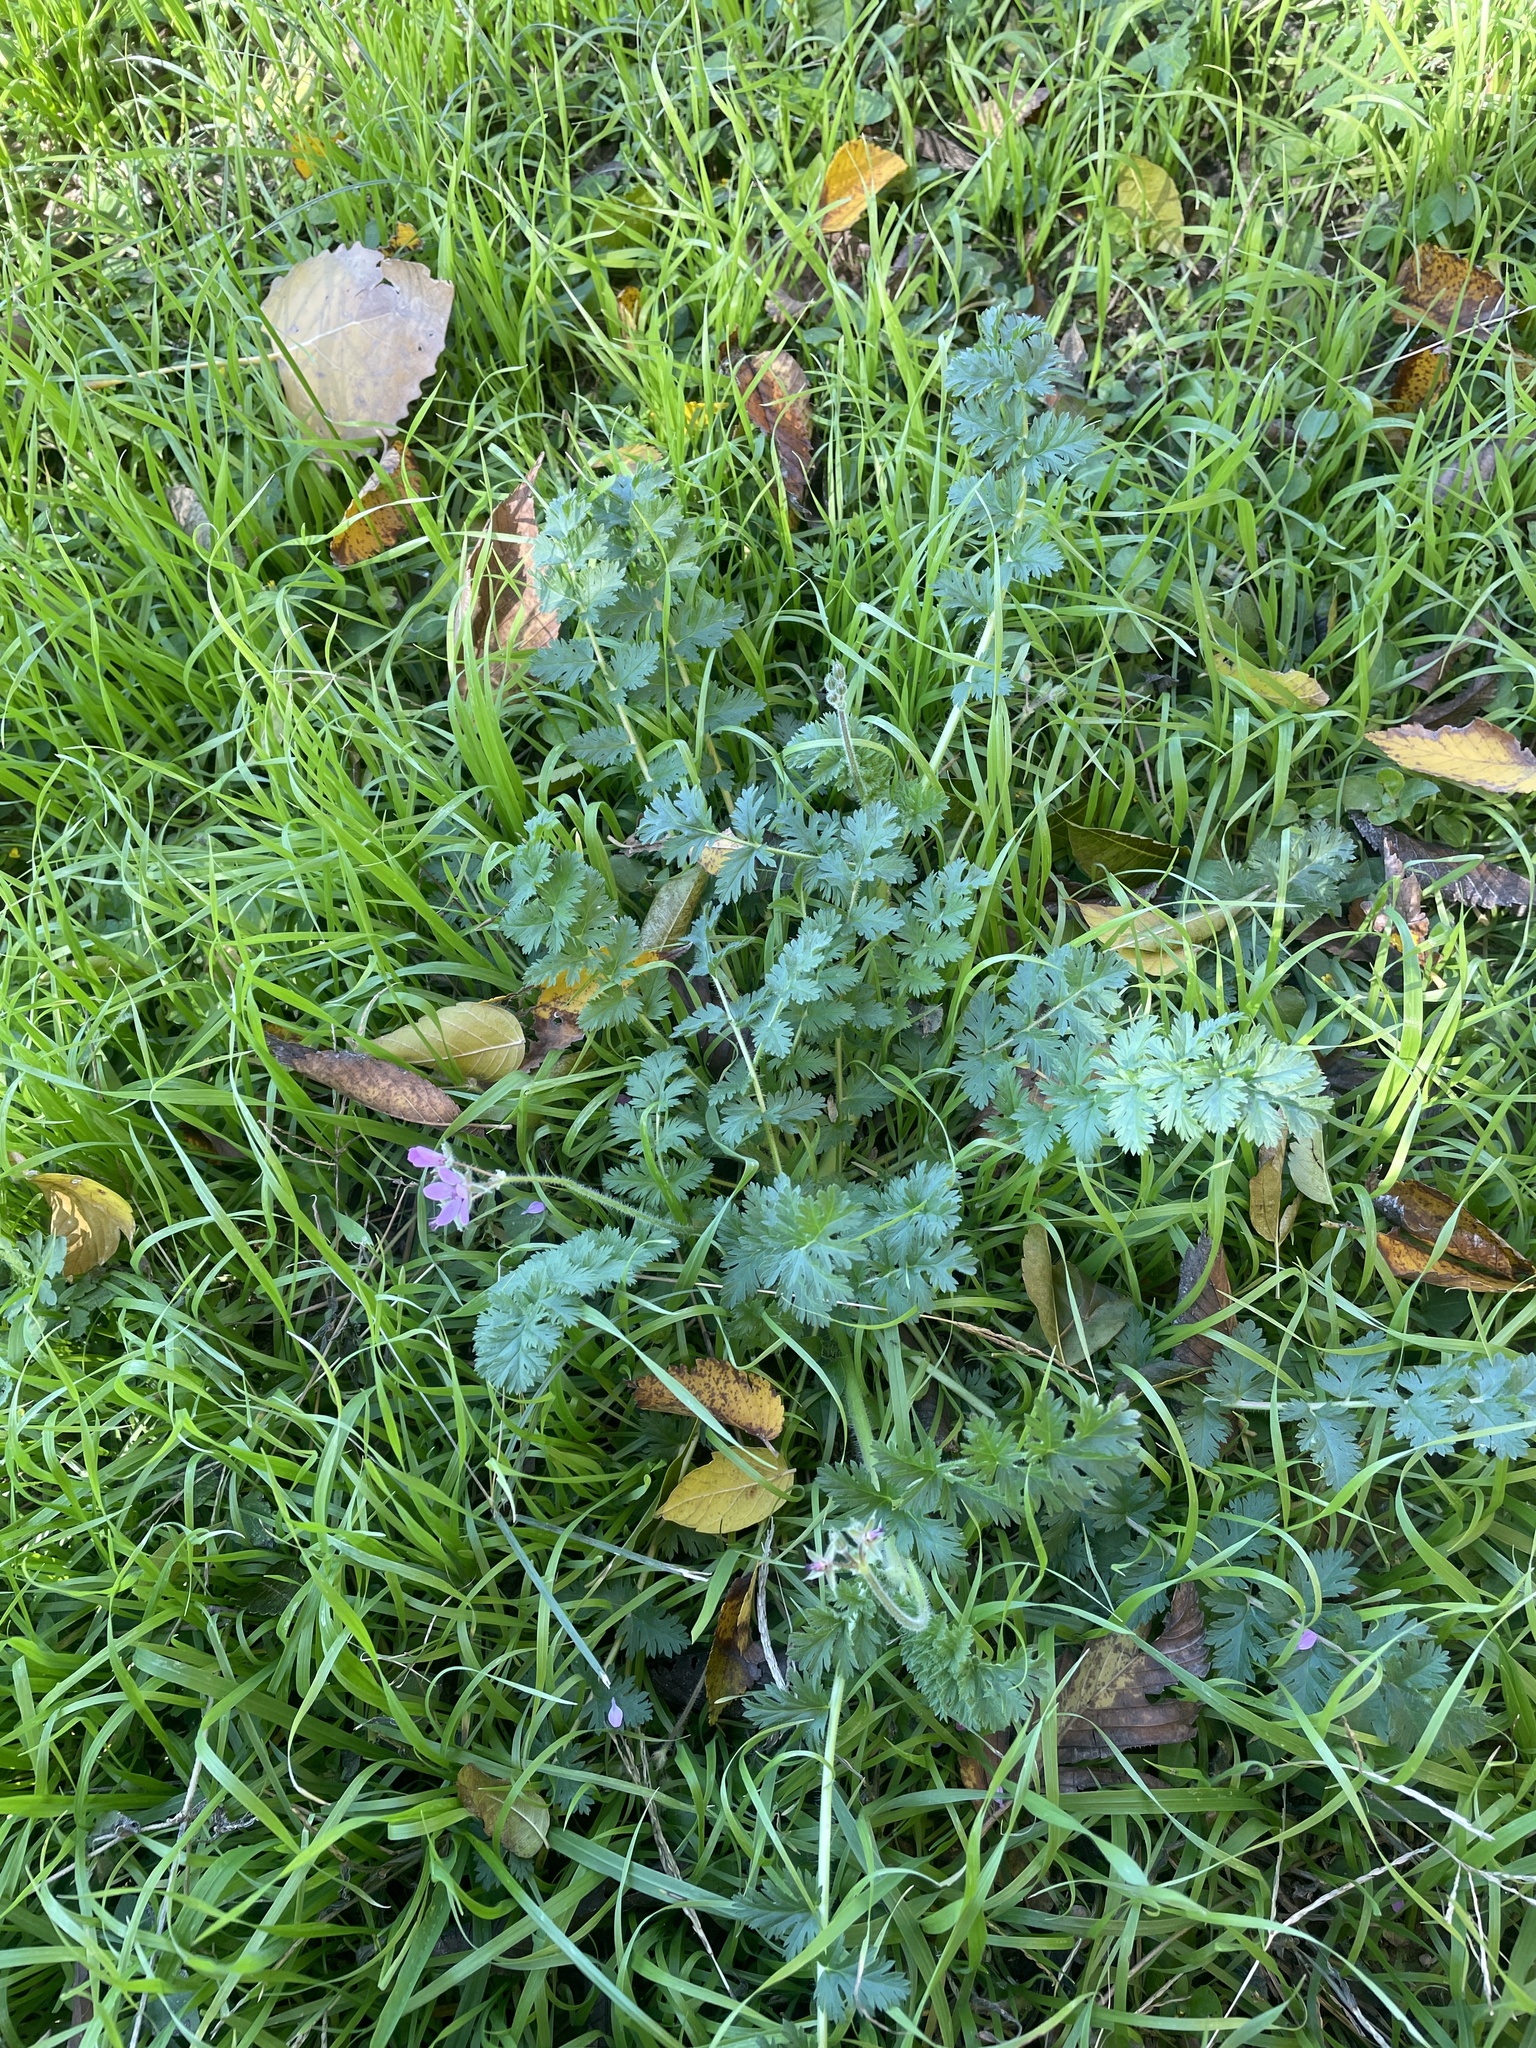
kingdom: Plantae
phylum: Tracheophyta
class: Magnoliopsida
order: Geraniales
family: Geraniaceae
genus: Erodium
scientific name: Erodium cicutarium
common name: Common stork's-bill
